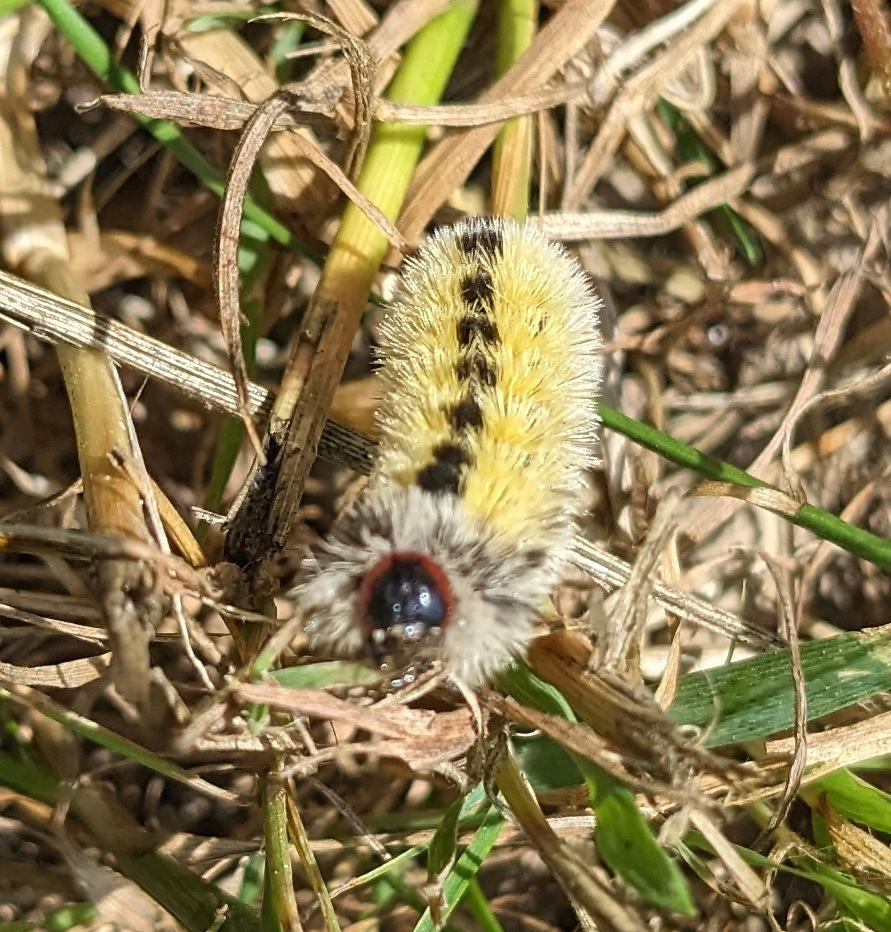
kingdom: Animalia
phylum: Arthropoda
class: Insecta
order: Lepidoptera
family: Erebidae
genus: Ctenucha
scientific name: Ctenucha virginica
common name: Virginia ctenucha moth
